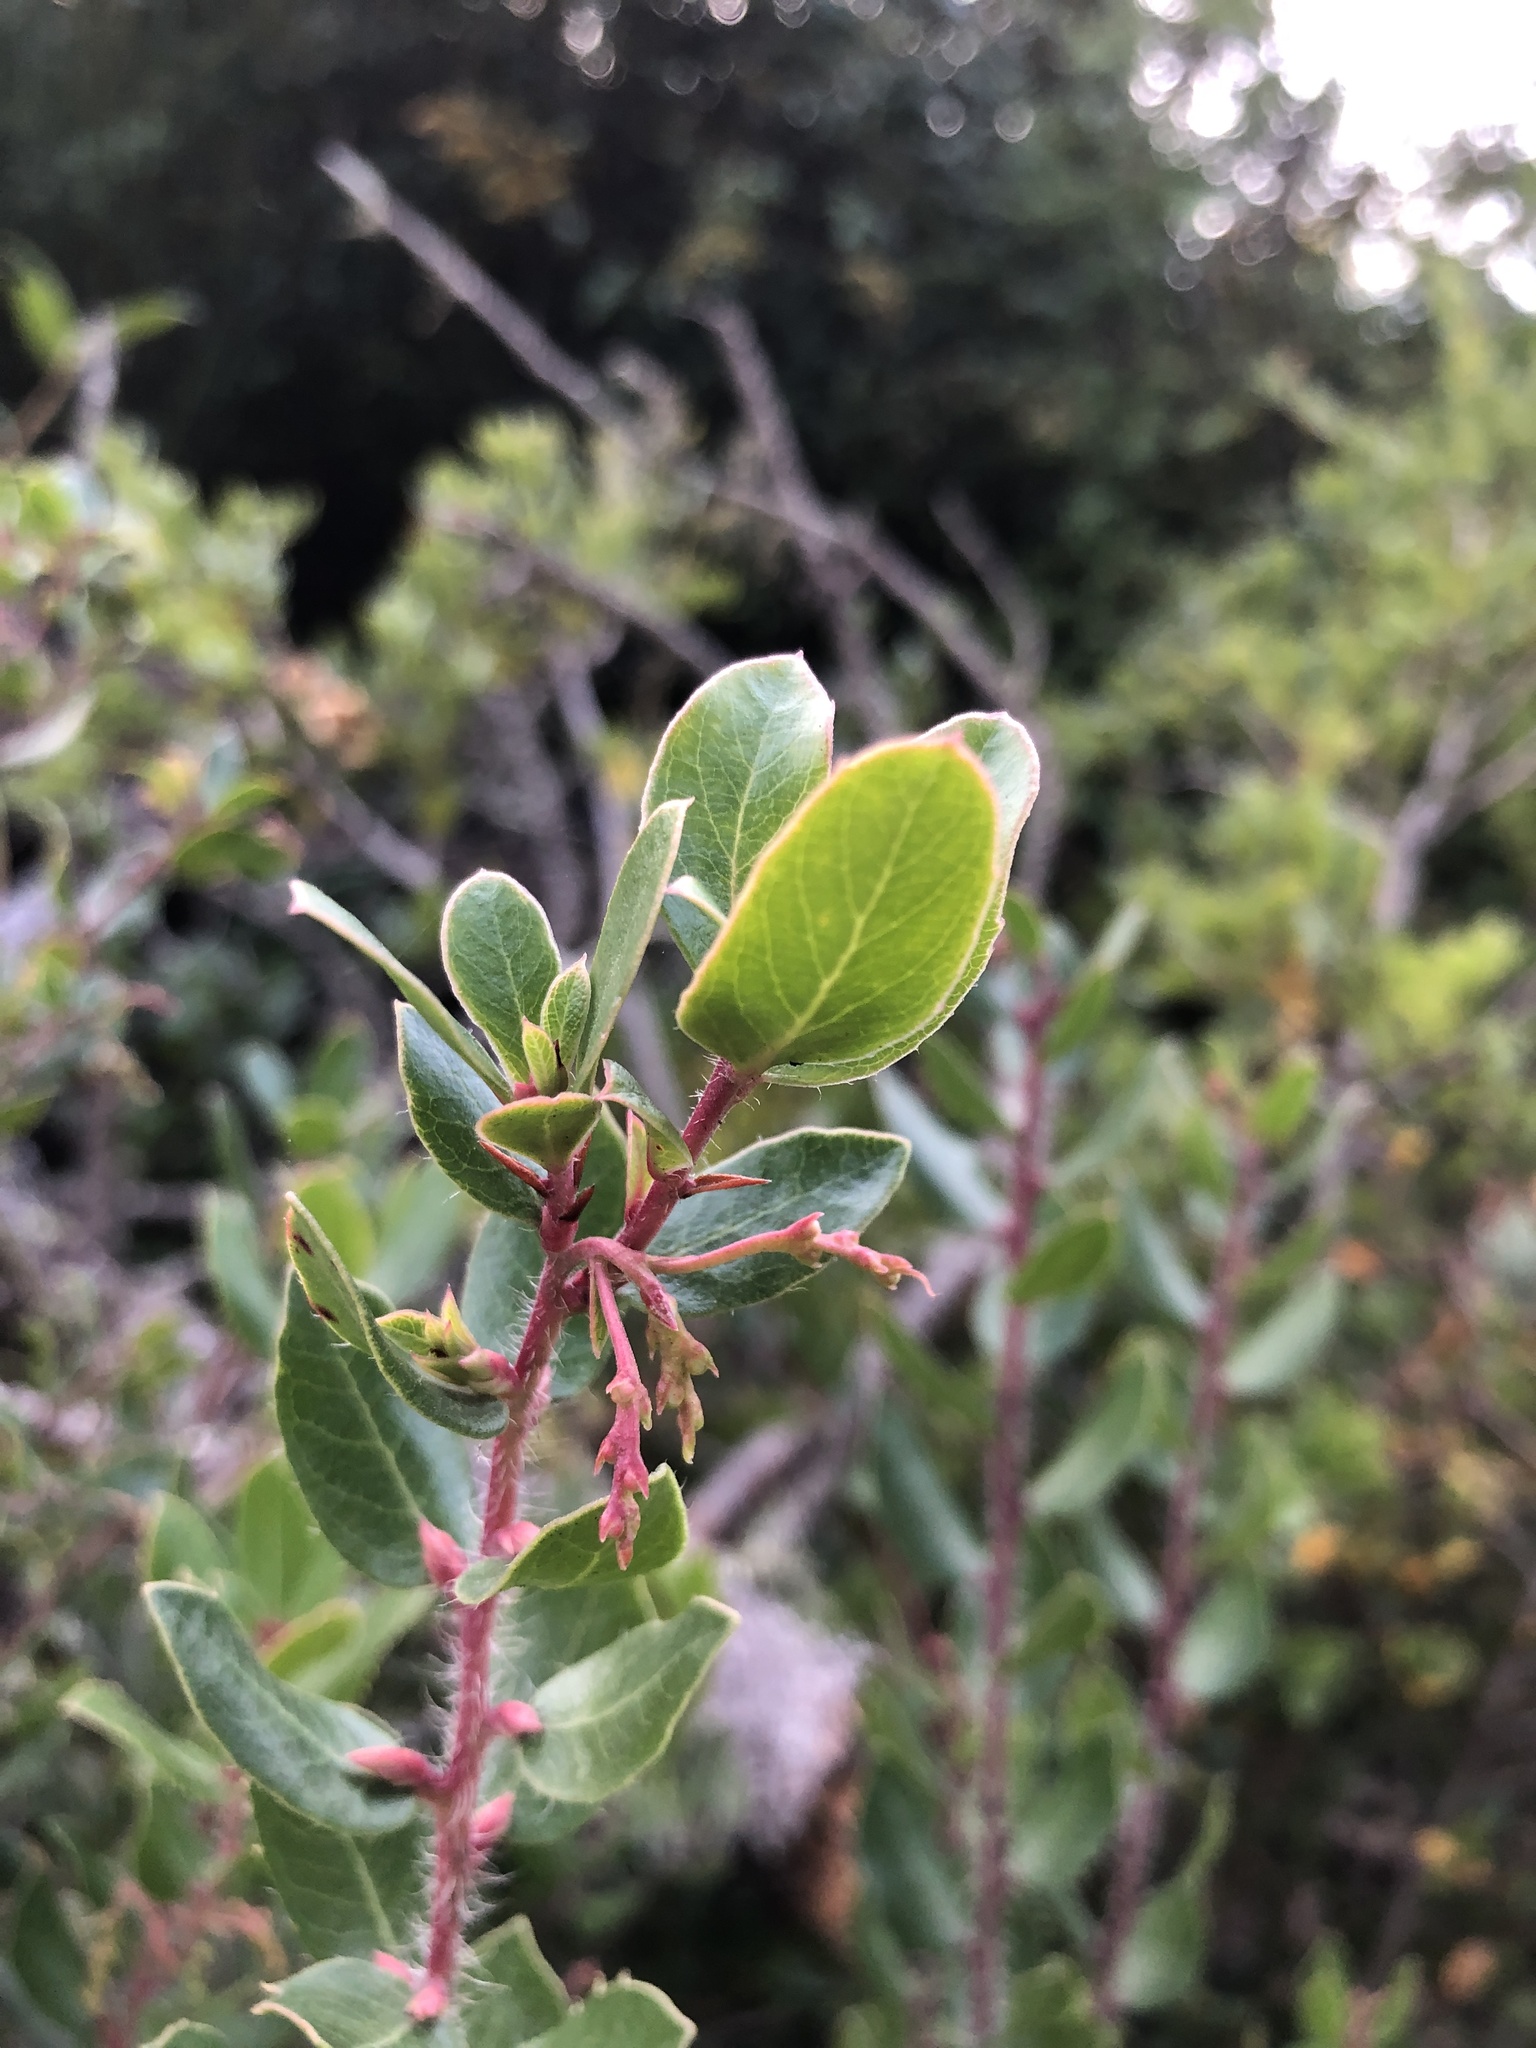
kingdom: Plantae
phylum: Tracheophyta
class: Magnoliopsida
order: Ericales
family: Ericaceae
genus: Arctostaphylos
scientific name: Arctostaphylos nummularia
